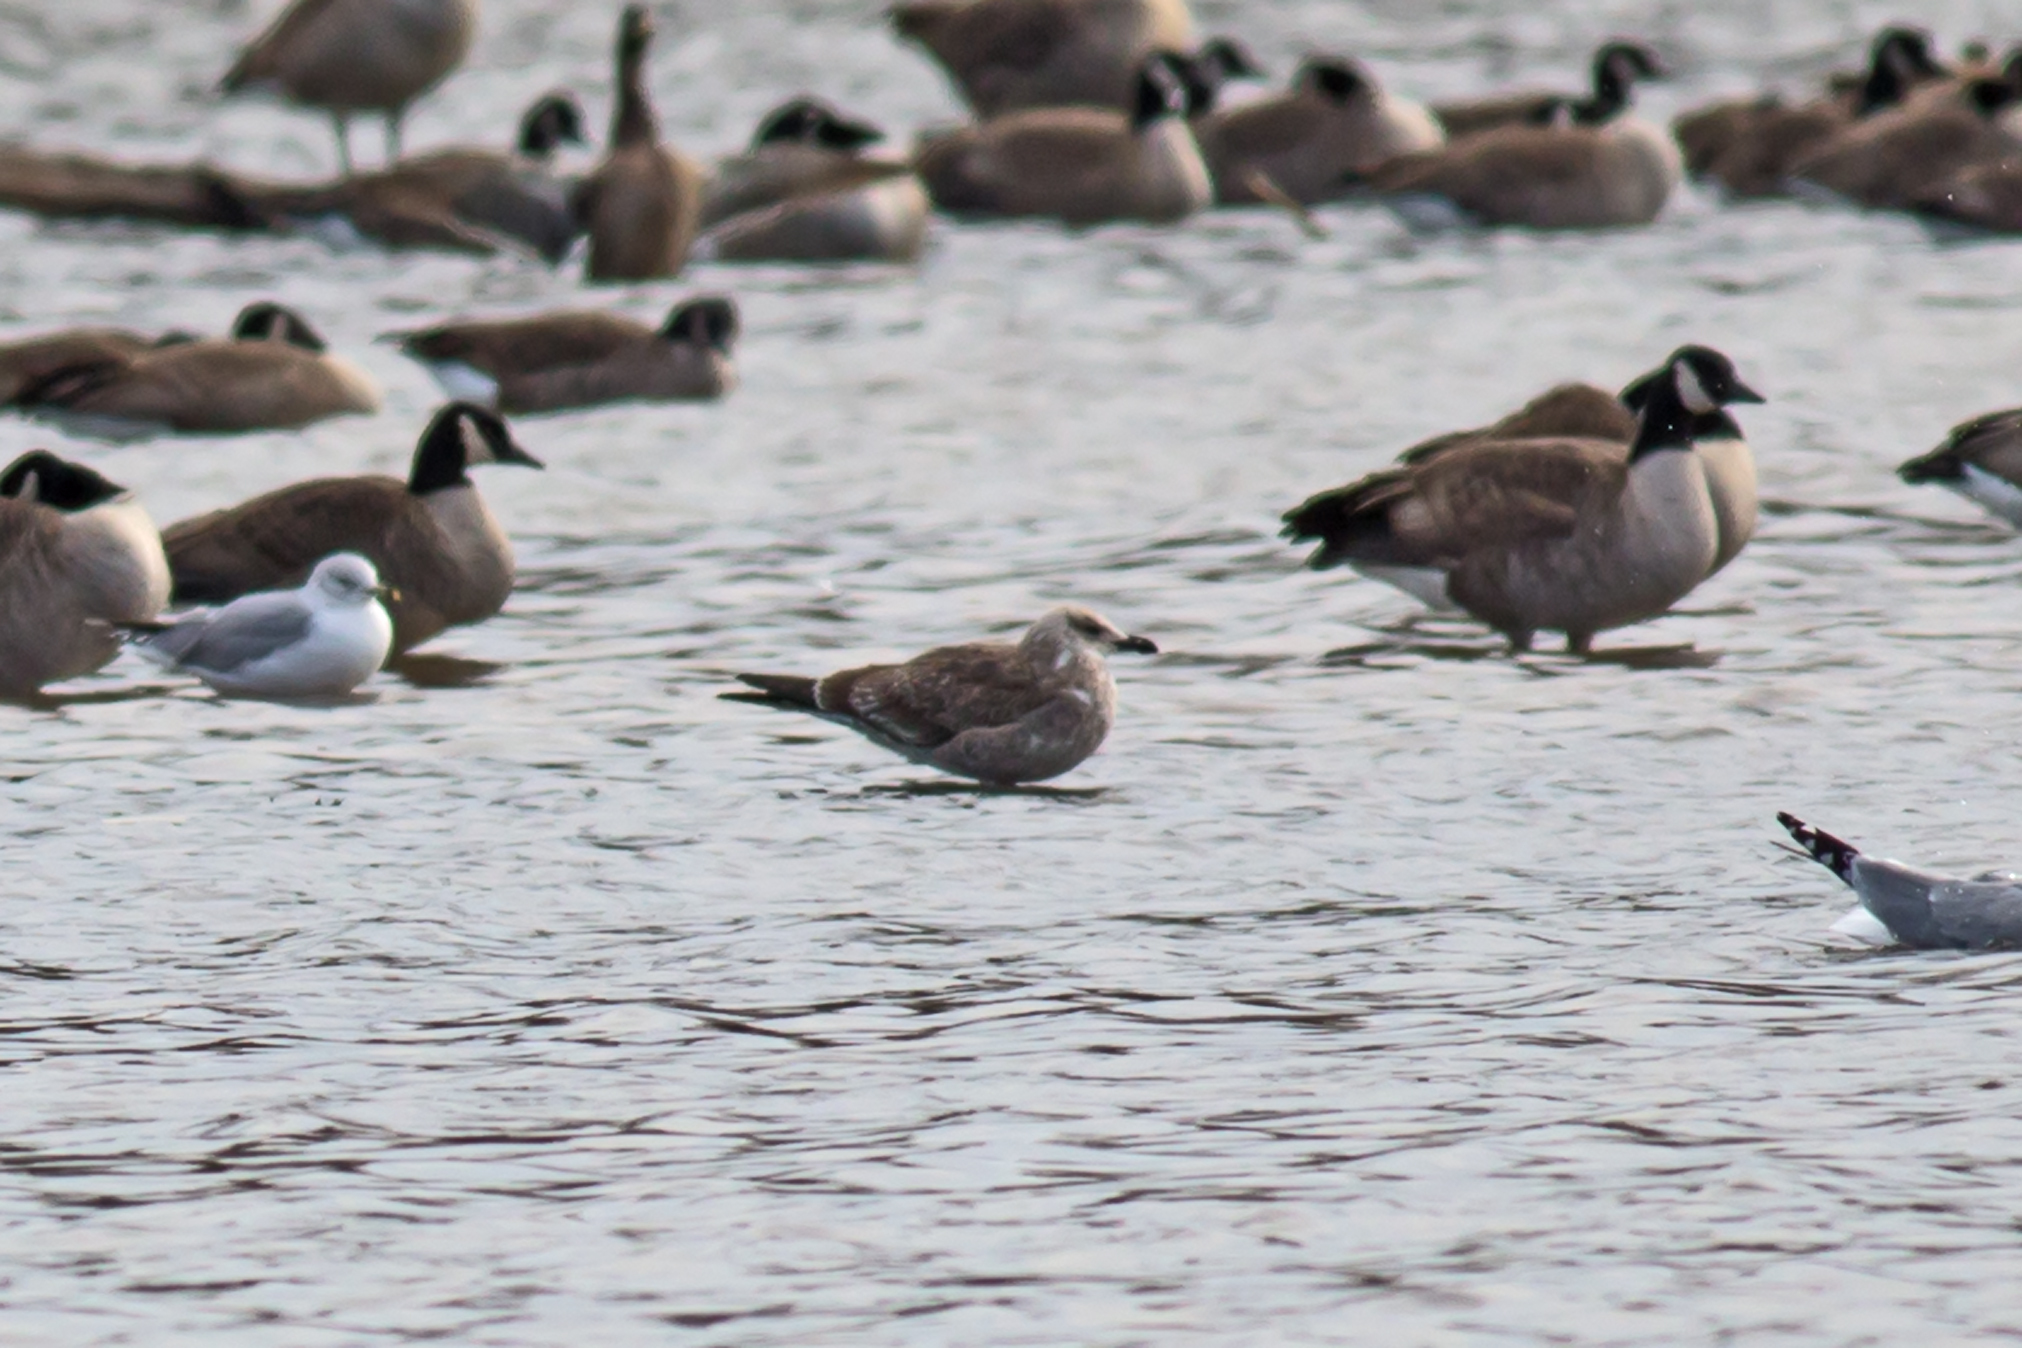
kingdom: Animalia
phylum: Chordata
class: Aves
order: Charadriiformes
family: Laridae
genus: Larus
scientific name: Larus fuscus
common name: Lesser black-backed gull
